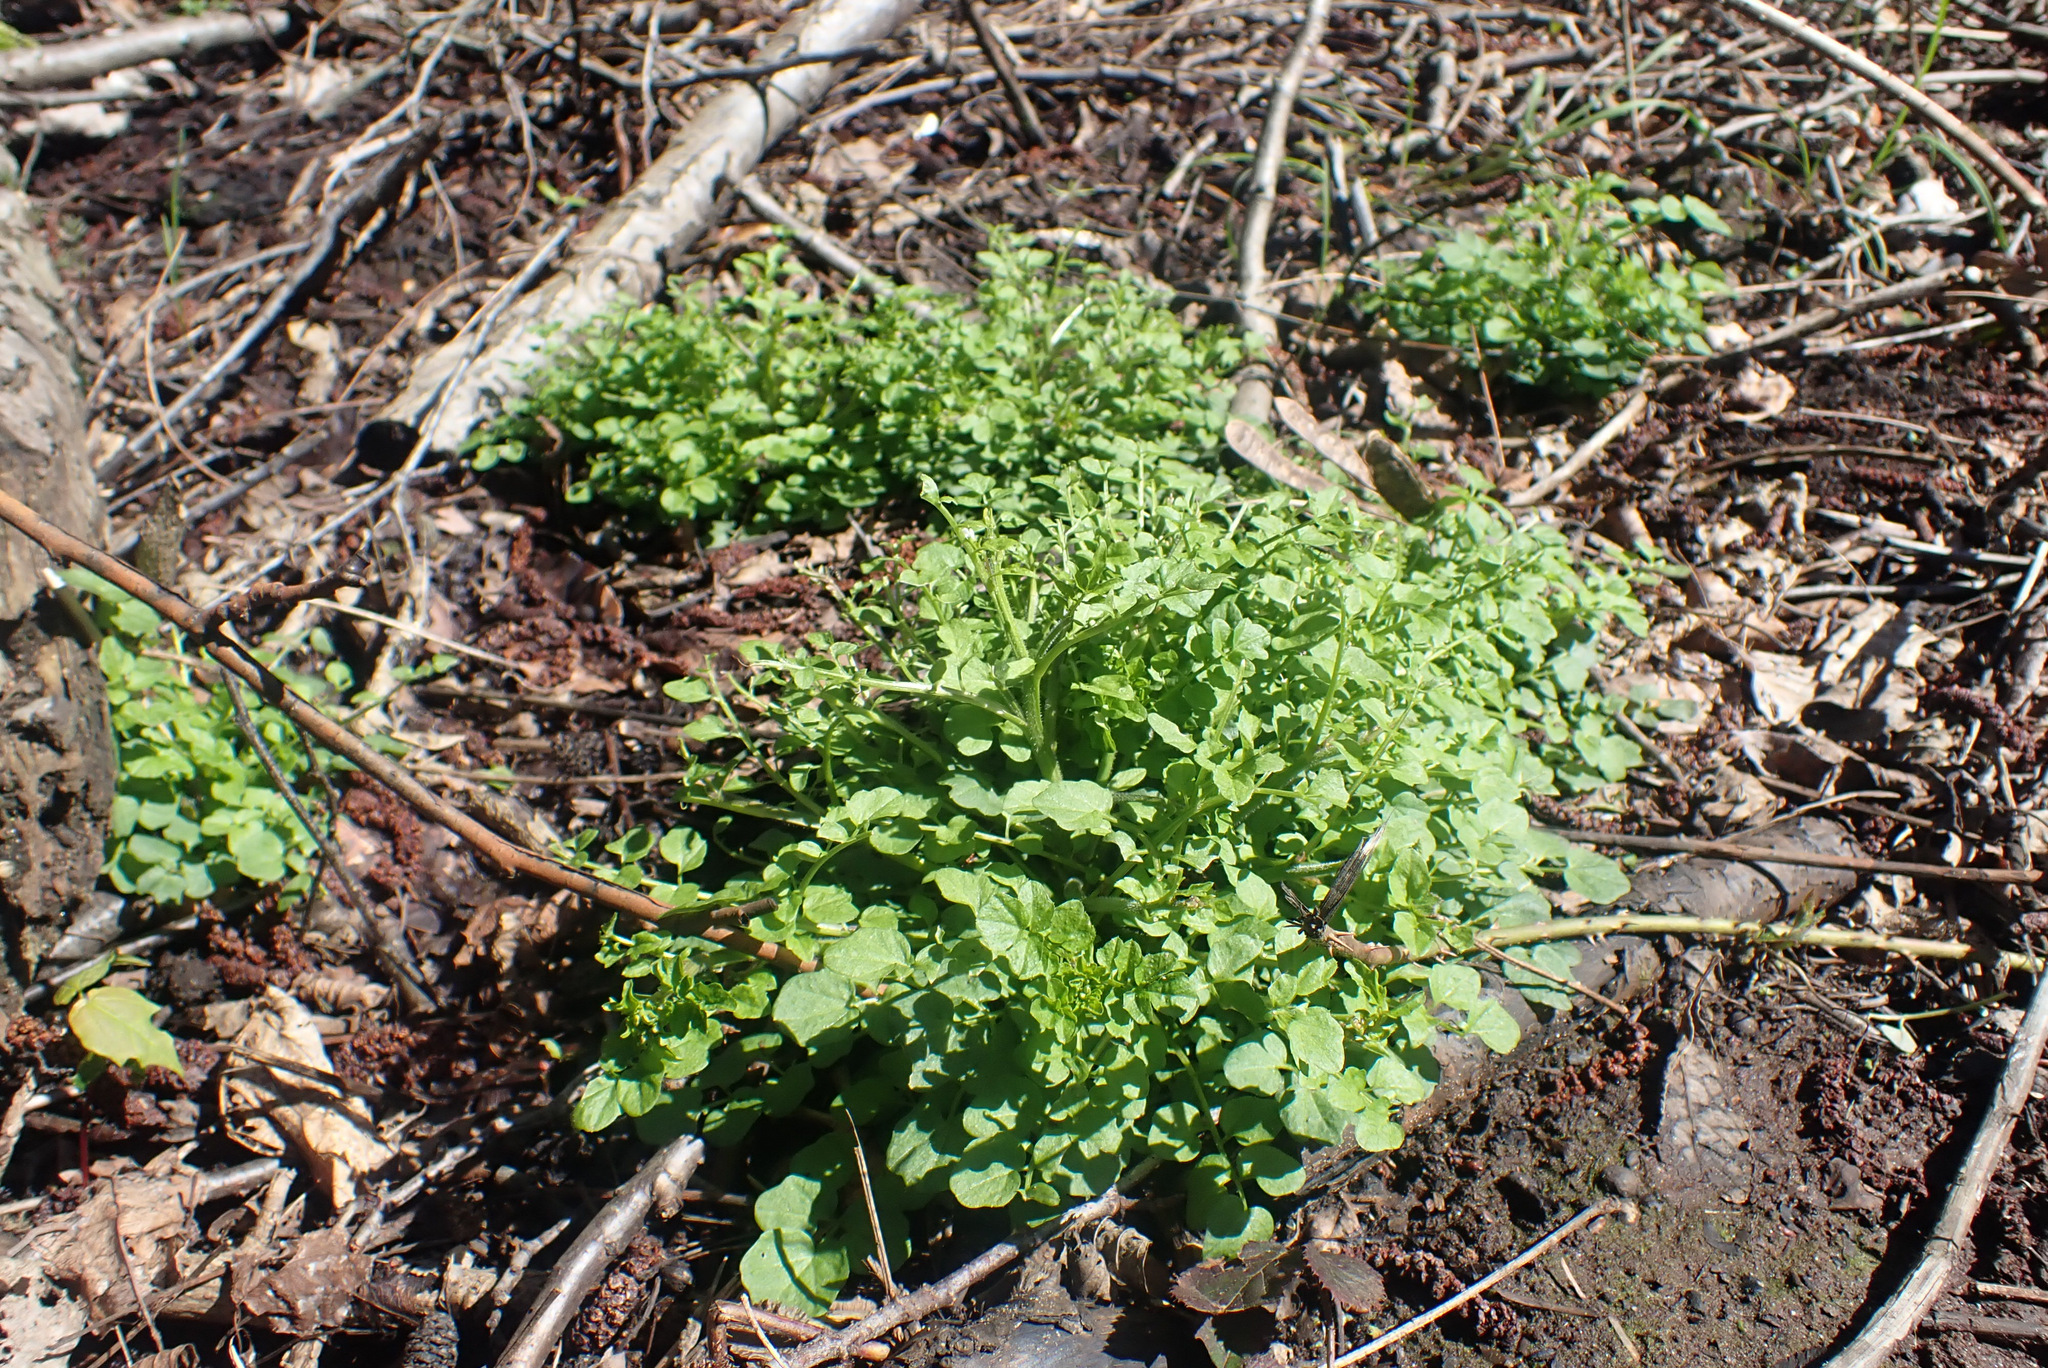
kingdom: Plantae
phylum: Tracheophyta
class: Magnoliopsida
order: Brassicales
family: Brassicaceae
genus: Cardamine
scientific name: Cardamine flexuosa
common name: Woodland bittercress
